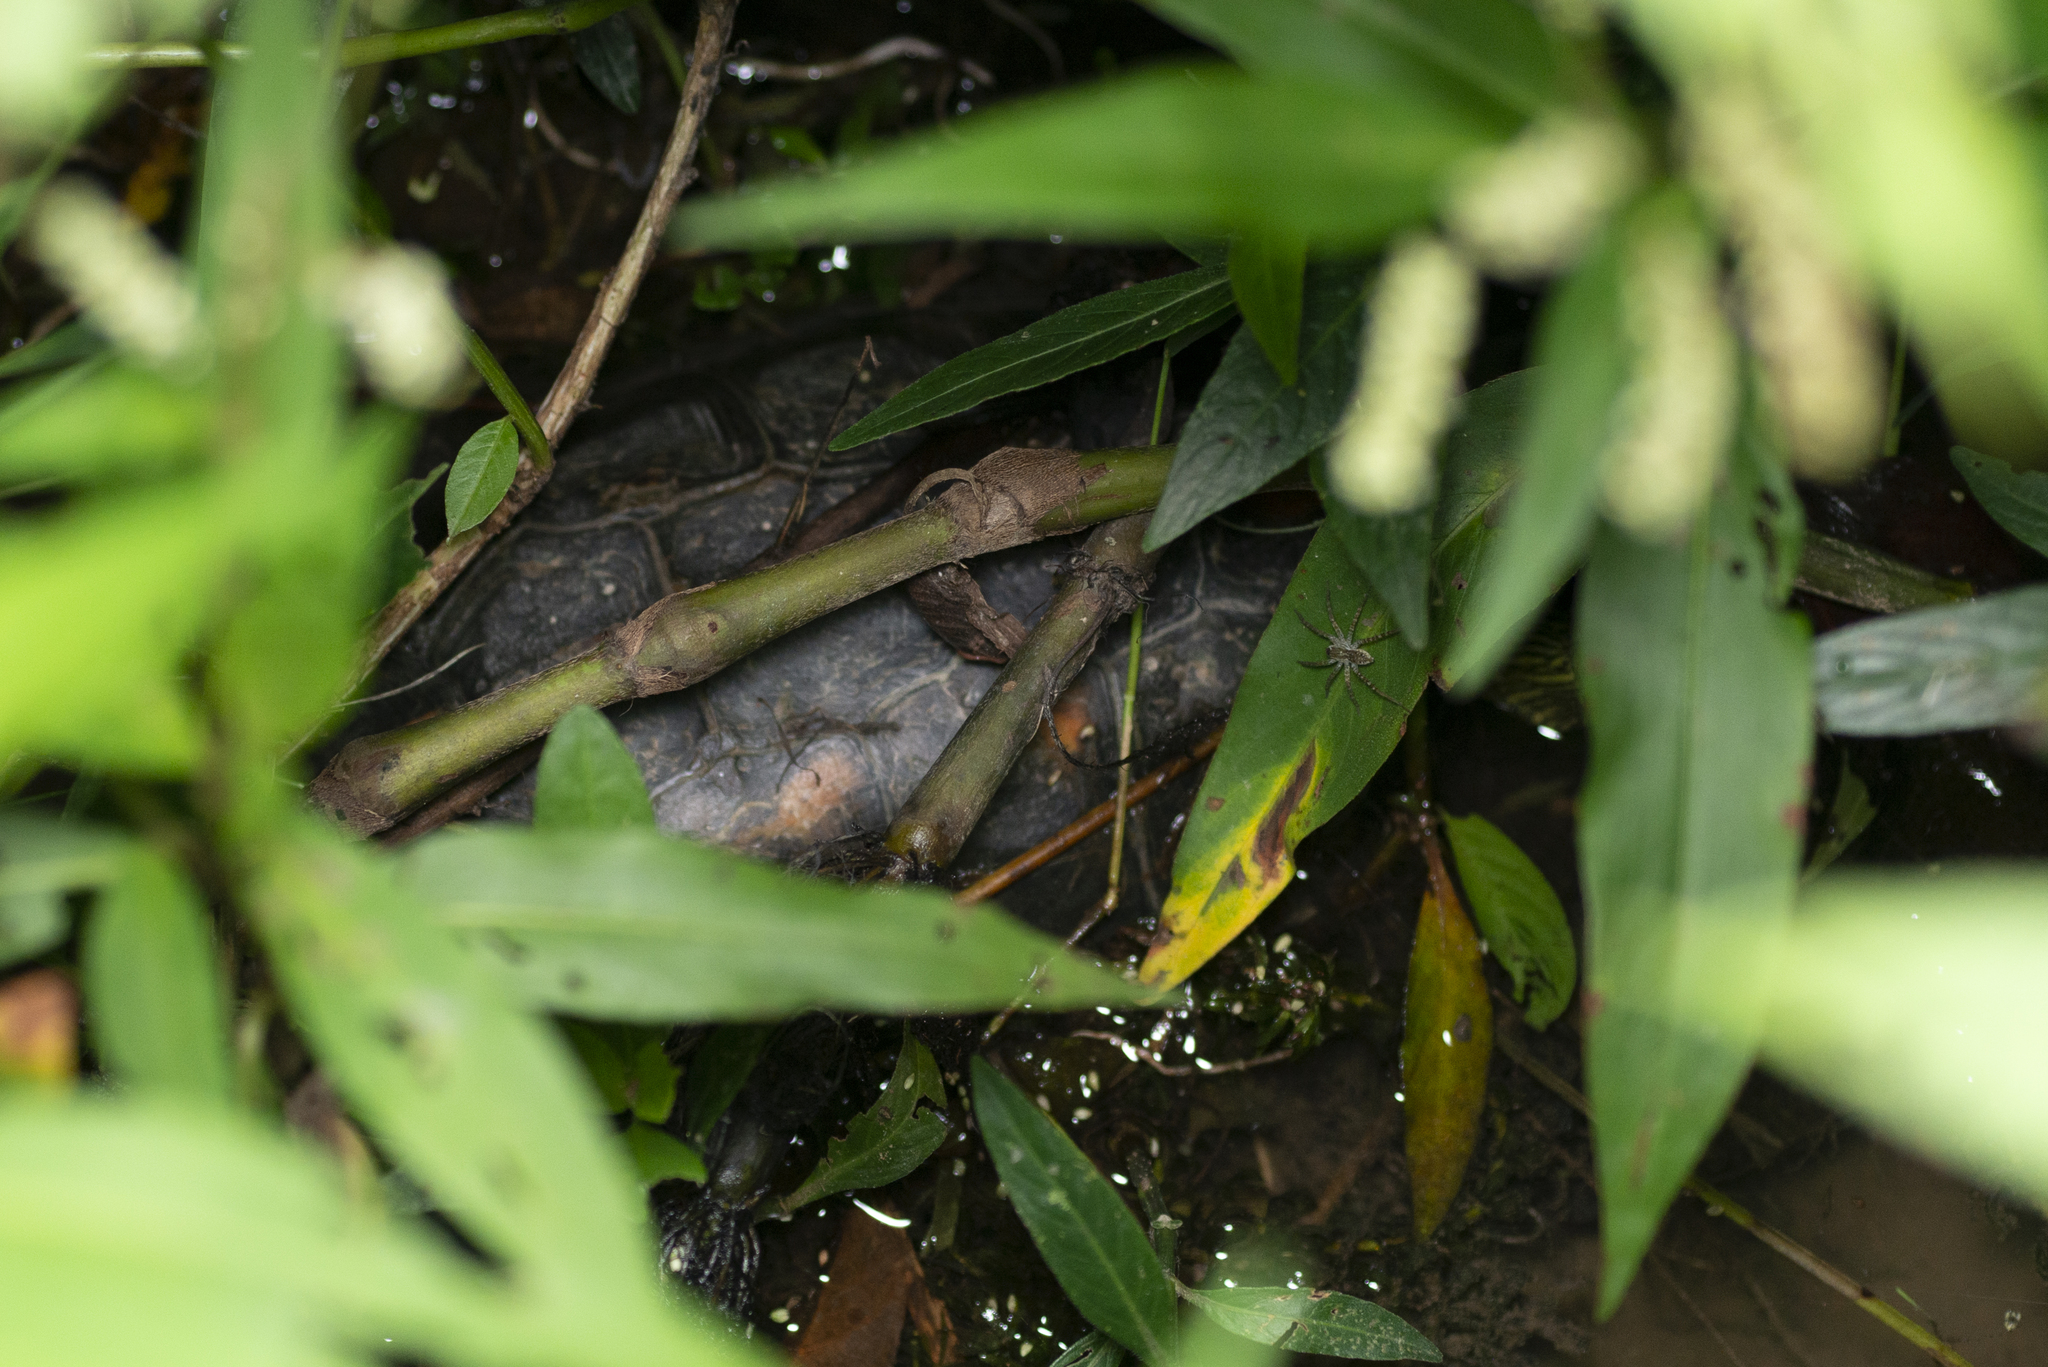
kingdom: Animalia
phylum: Chordata
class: Testudines
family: Geoemydidae
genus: Mauremys
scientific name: Mauremys sinensis
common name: Chinese stripe-necked turtle
